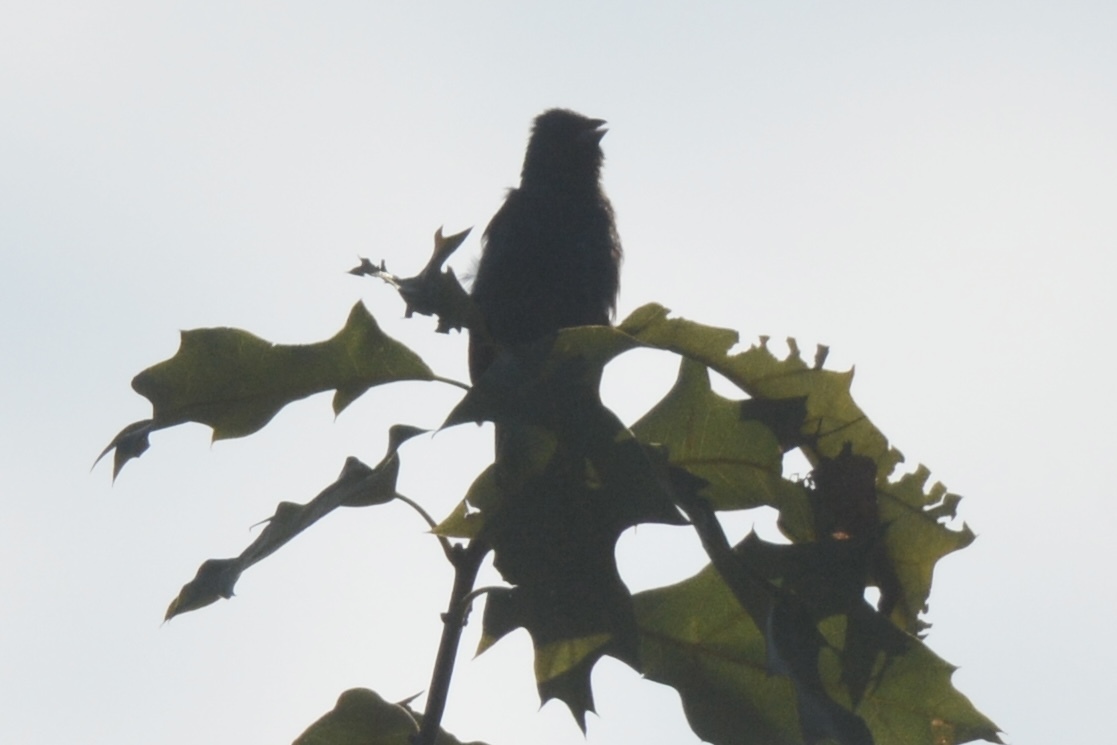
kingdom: Animalia
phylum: Chordata
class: Aves
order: Passeriformes
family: Cardinalidae
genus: Passerina
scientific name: Passerina cyanea
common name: Indigo bunting
